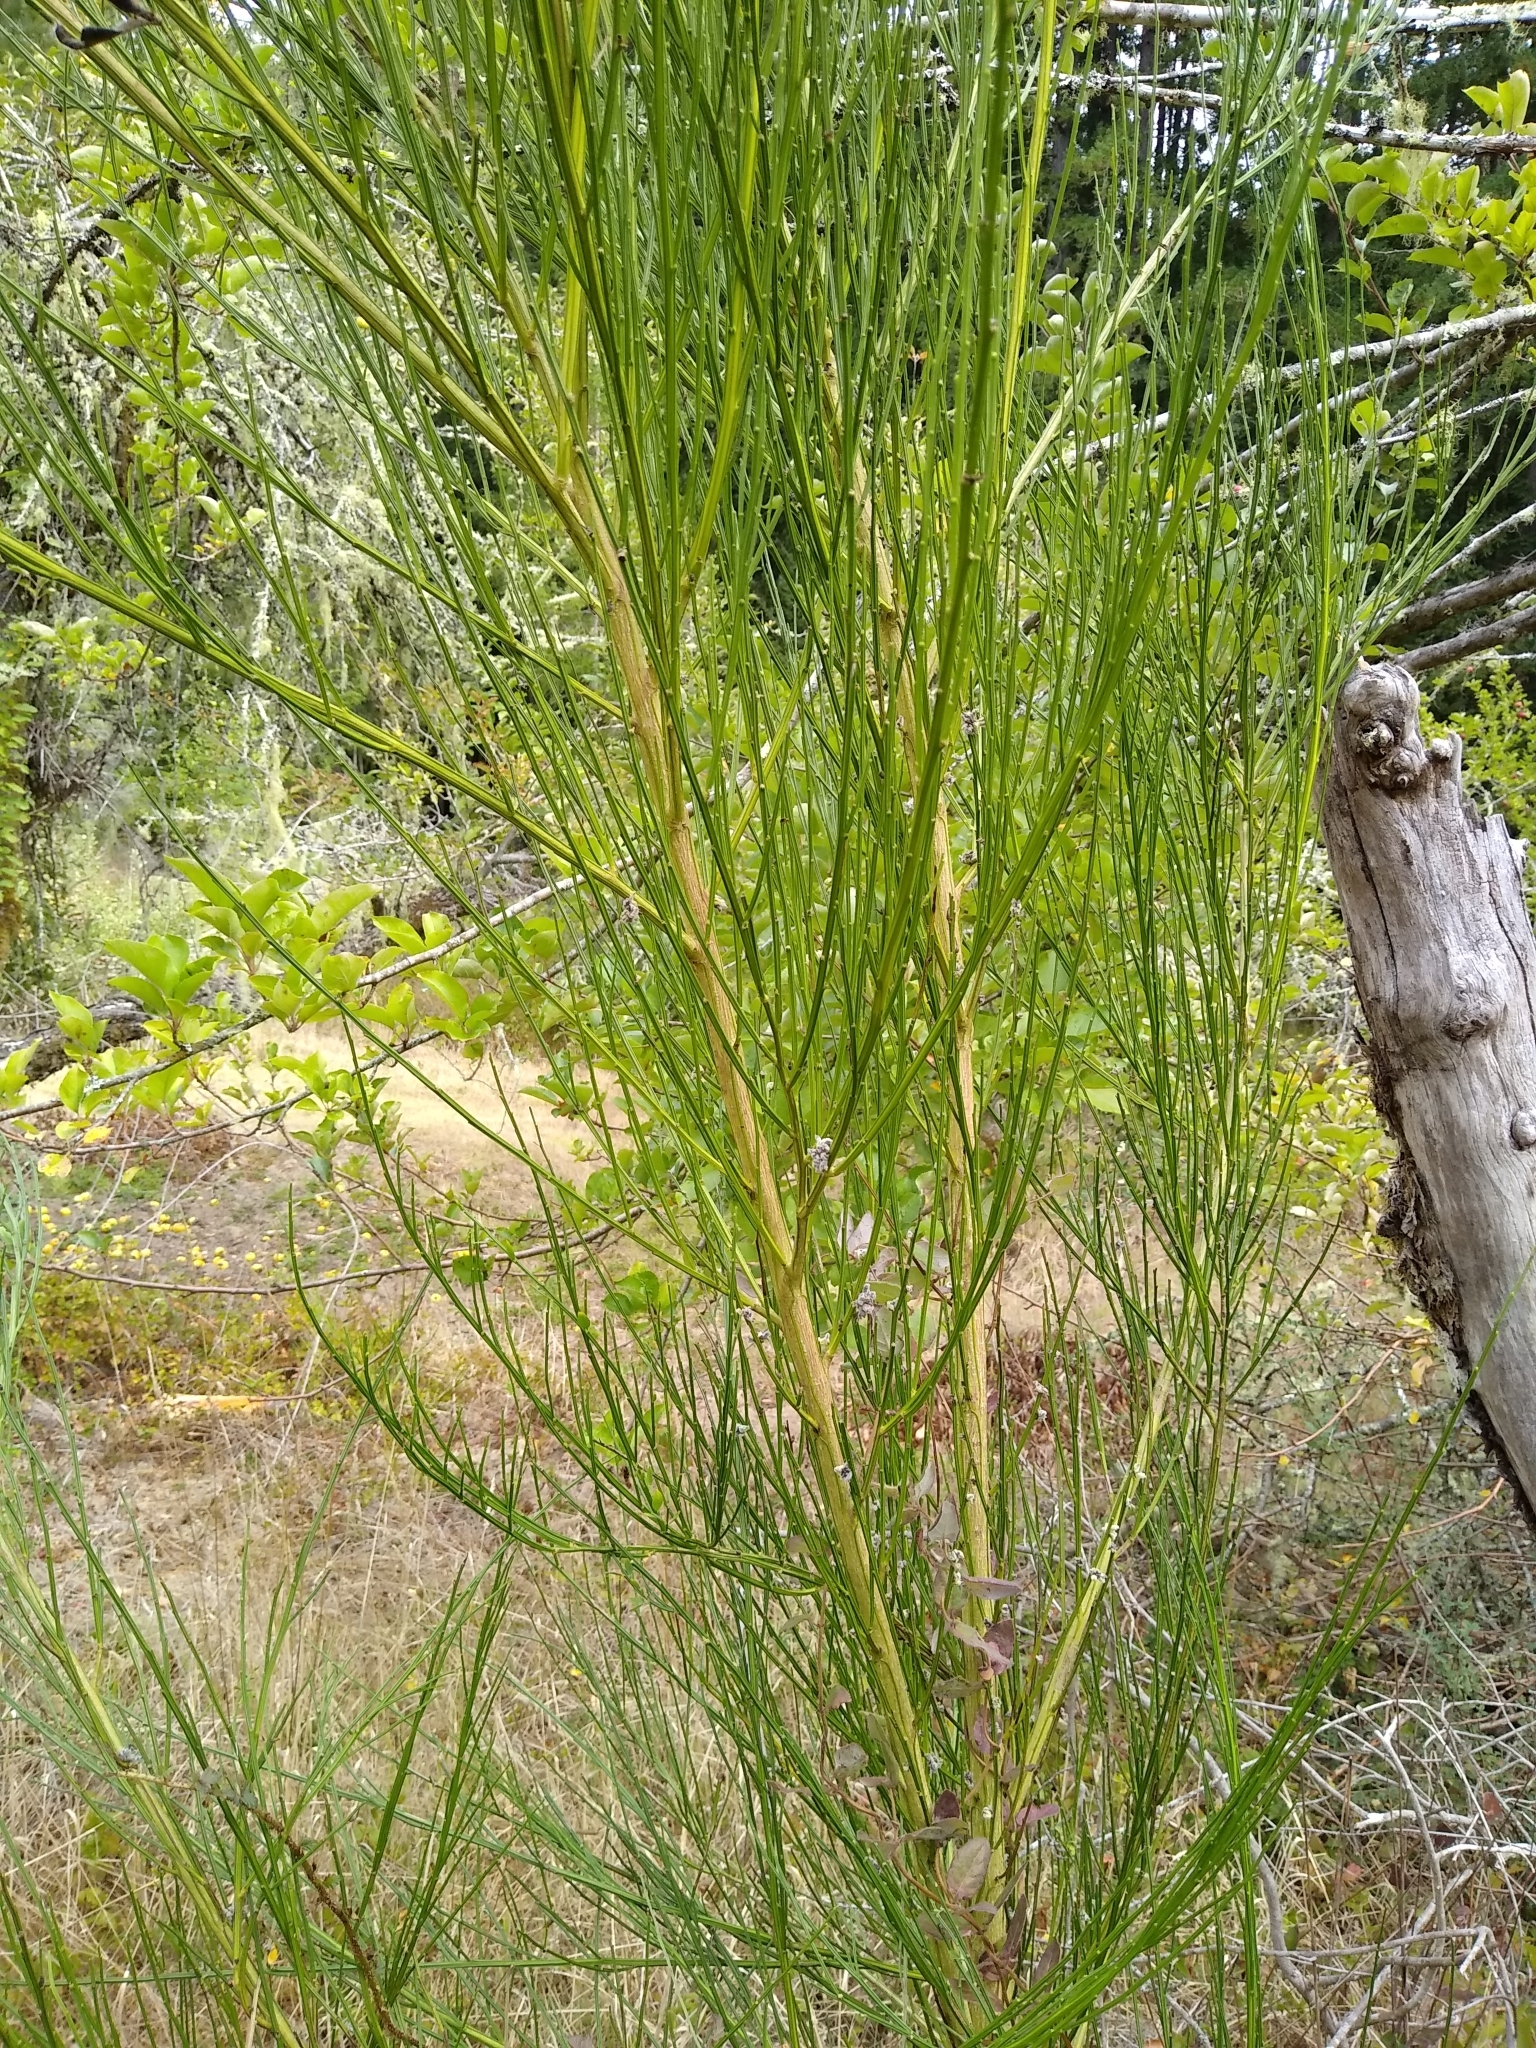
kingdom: Plantae
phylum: Tracheophyta
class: Magnoliopsida
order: Fabales
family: Fabaceae
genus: Cytisus
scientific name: Cytisus scoparius
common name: Scotch broom
